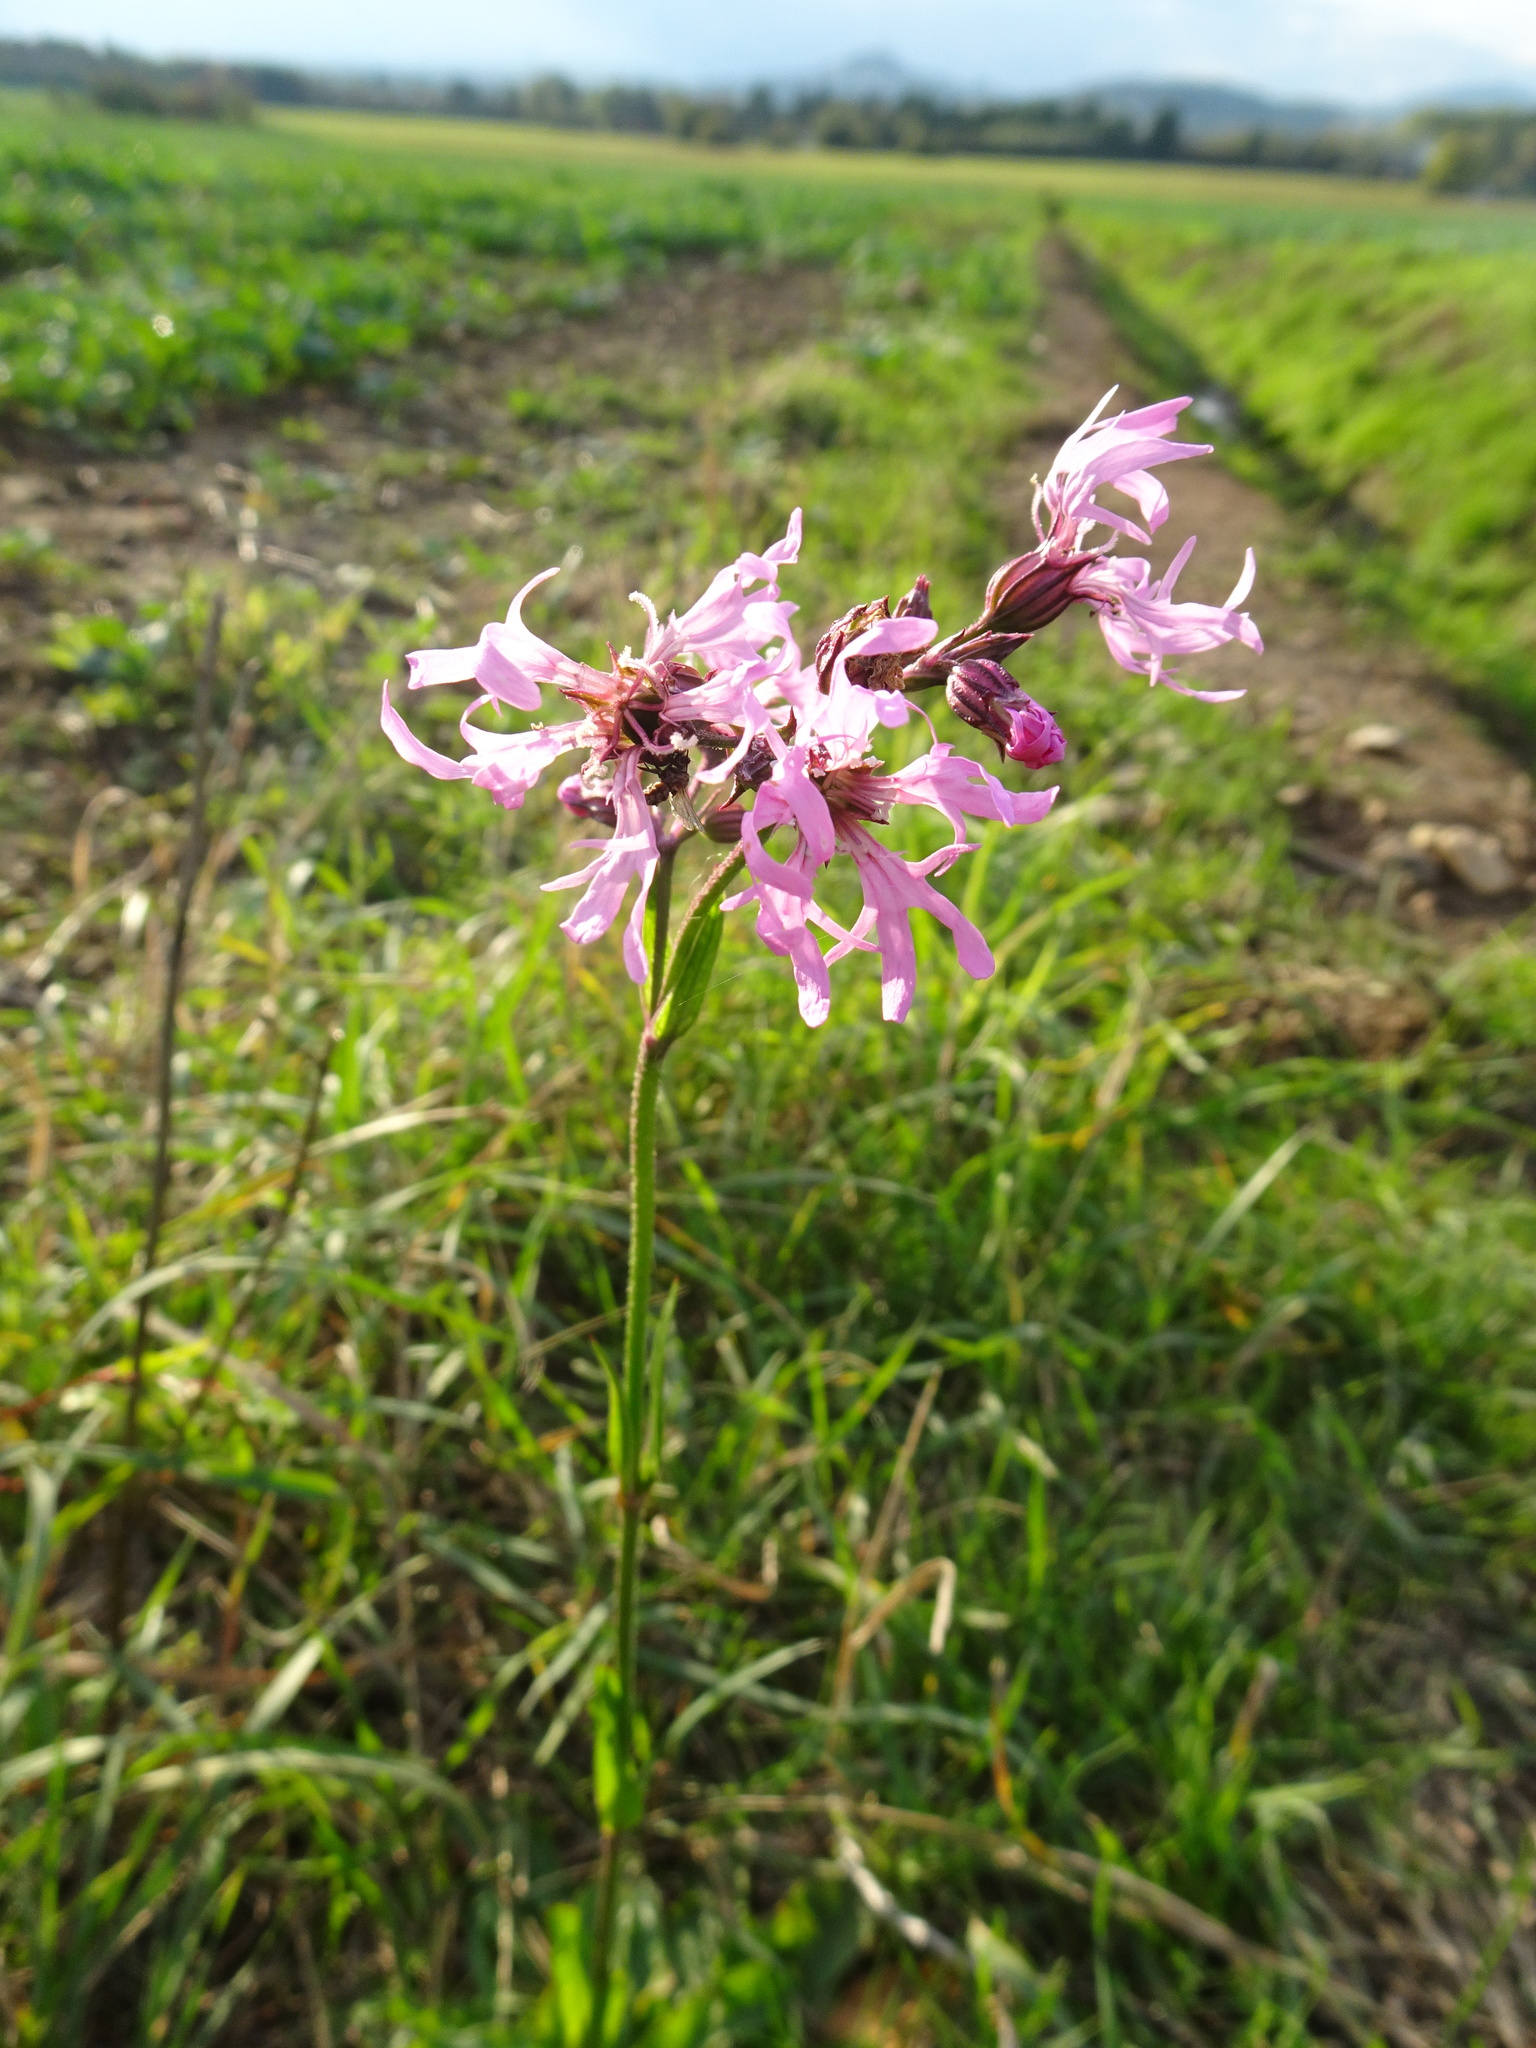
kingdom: Plantae
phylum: Tracheophyta
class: Magnoliopsida
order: Caryophyllales
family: Caryophyllaceae
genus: Silene
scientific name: Silene flos-cuculi
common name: Ragged-robin
